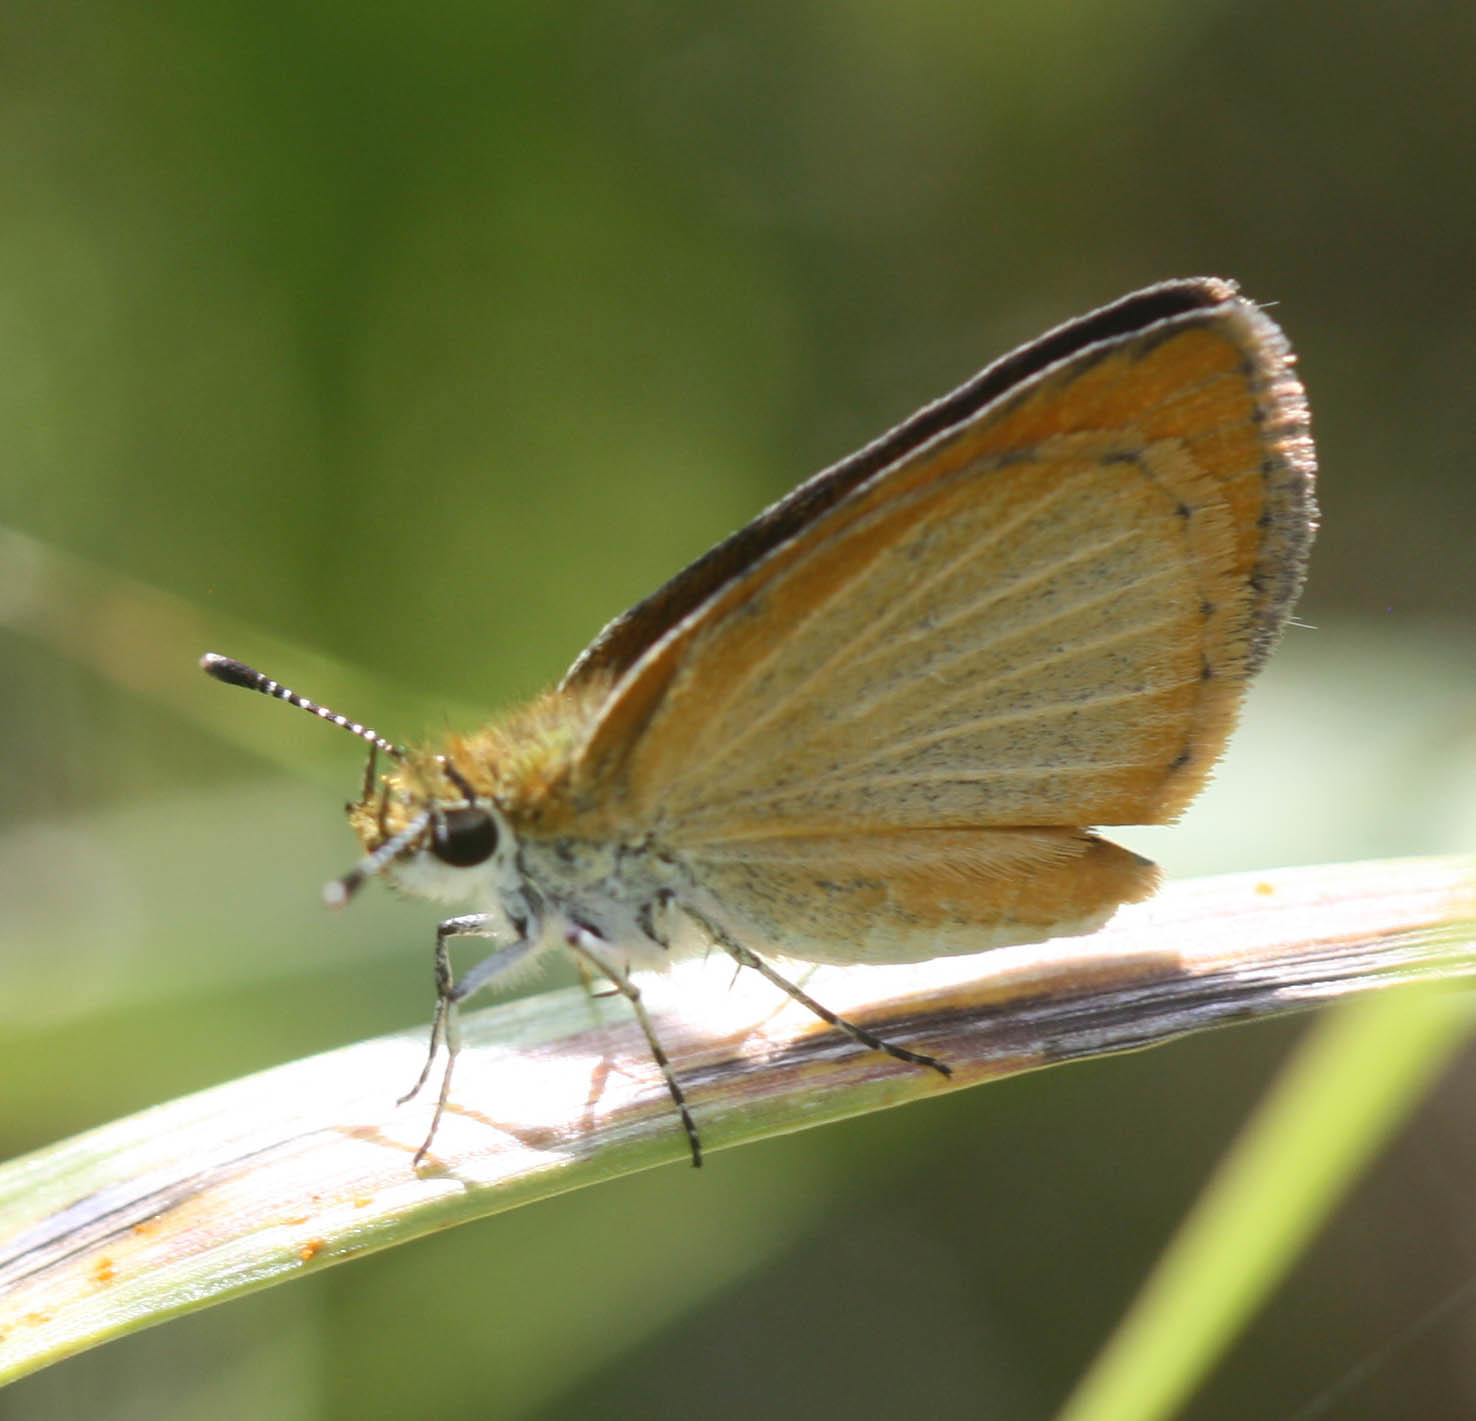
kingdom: Animalia
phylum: Arthropoda
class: Insecta
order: Lepidoptera
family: Hesperiidae
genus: Ancyloxypha
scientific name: Ancyloxypha numitor
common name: Least skipper
